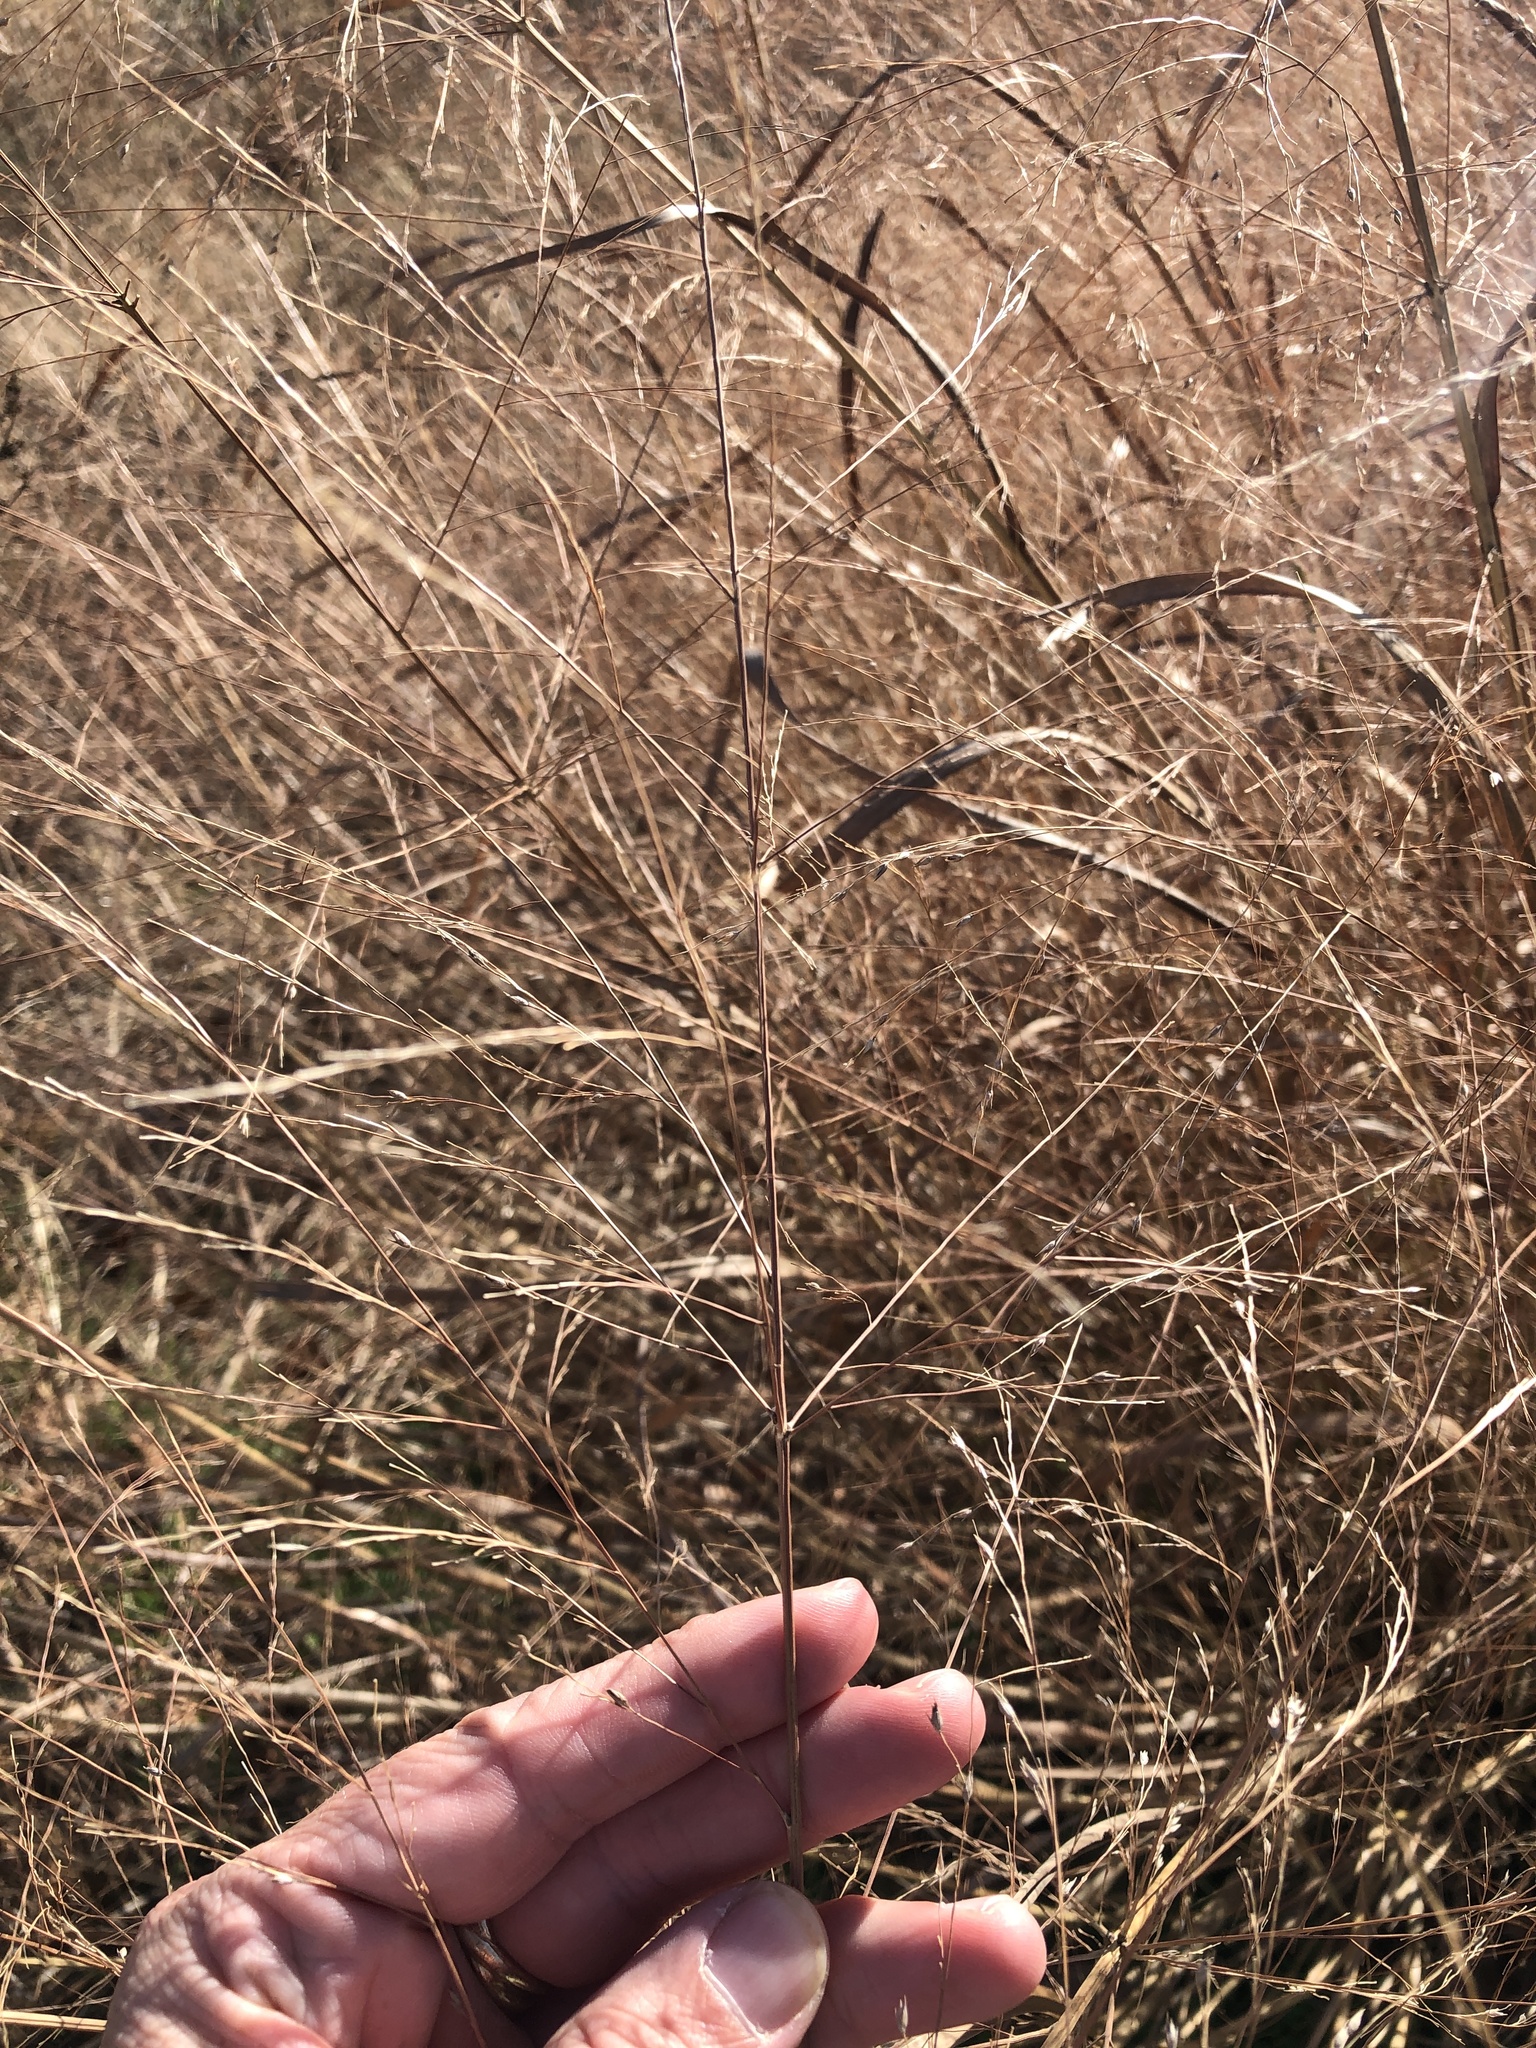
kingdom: Plantae
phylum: Tracheophyta
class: Liliopsida
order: Poales
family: Poaceae
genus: Panicum
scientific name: Panicum virgatum
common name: Switchgrass
